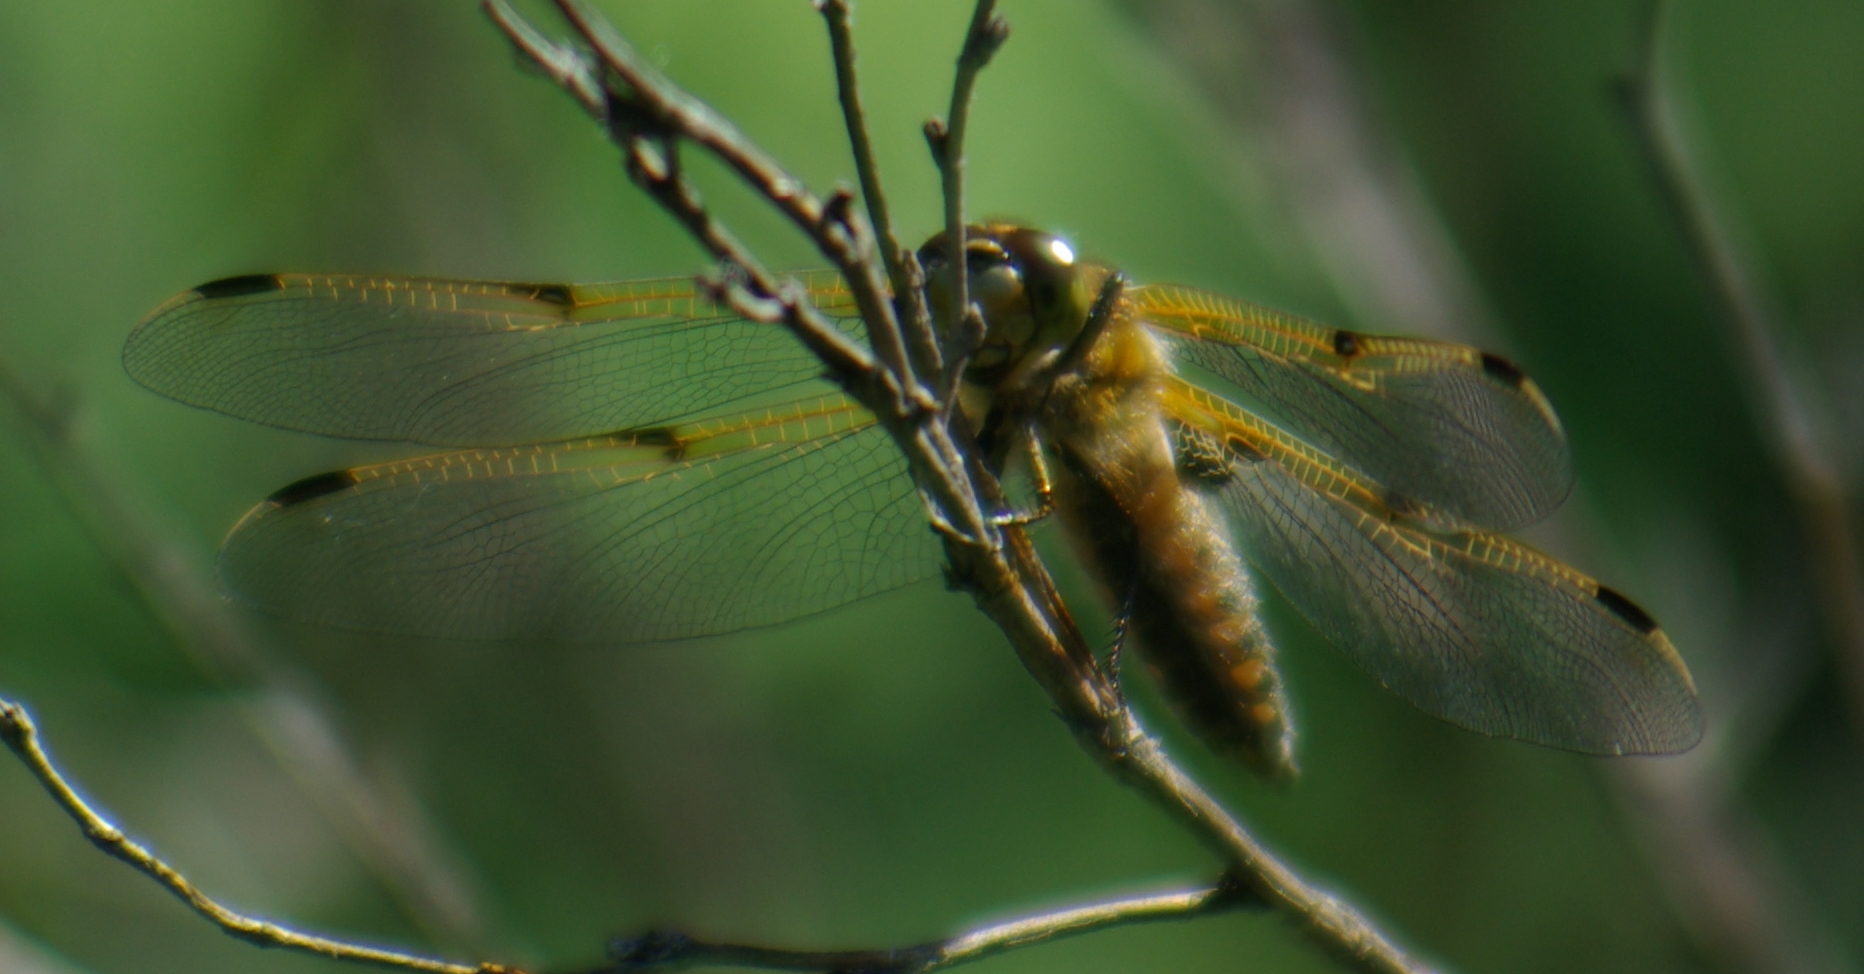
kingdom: Animalia
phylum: Arthropoda
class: Insecta
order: Odonata
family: Libellulidae
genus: Libellula
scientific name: Libellula quadrimaculata
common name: Four-spotted chaser
